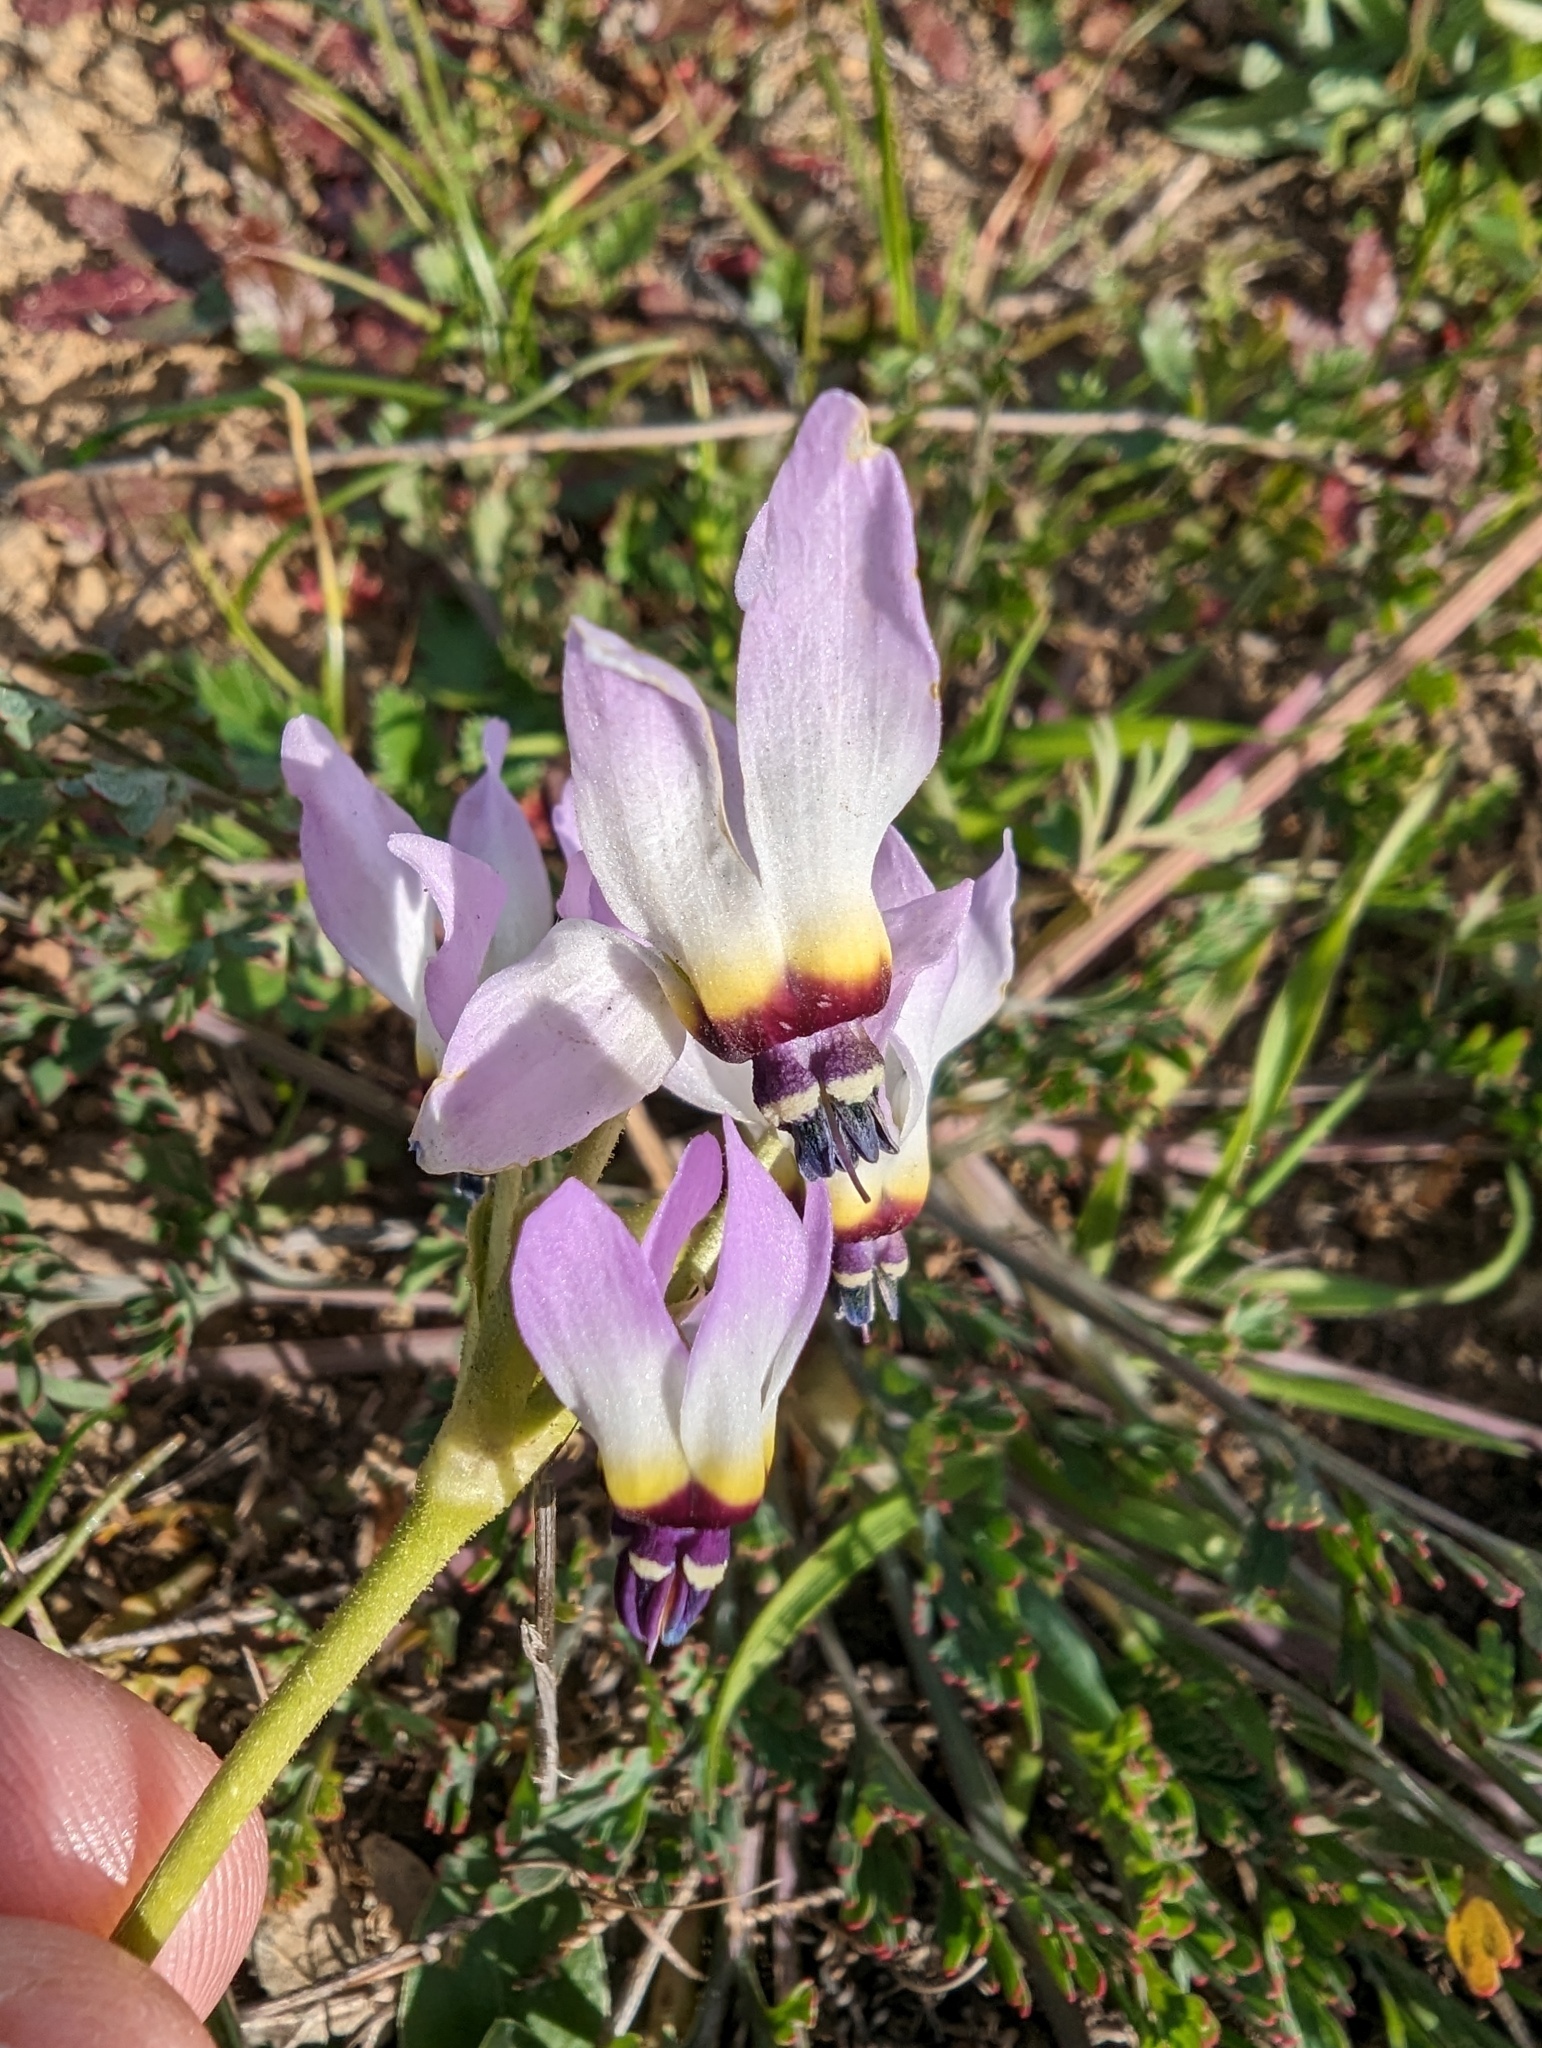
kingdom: Plantae
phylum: Tracheophyta
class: Magnoliopsida
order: Ericales
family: Primulaceae
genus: Dodecatheon
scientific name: Dodecatheon clevelandii
